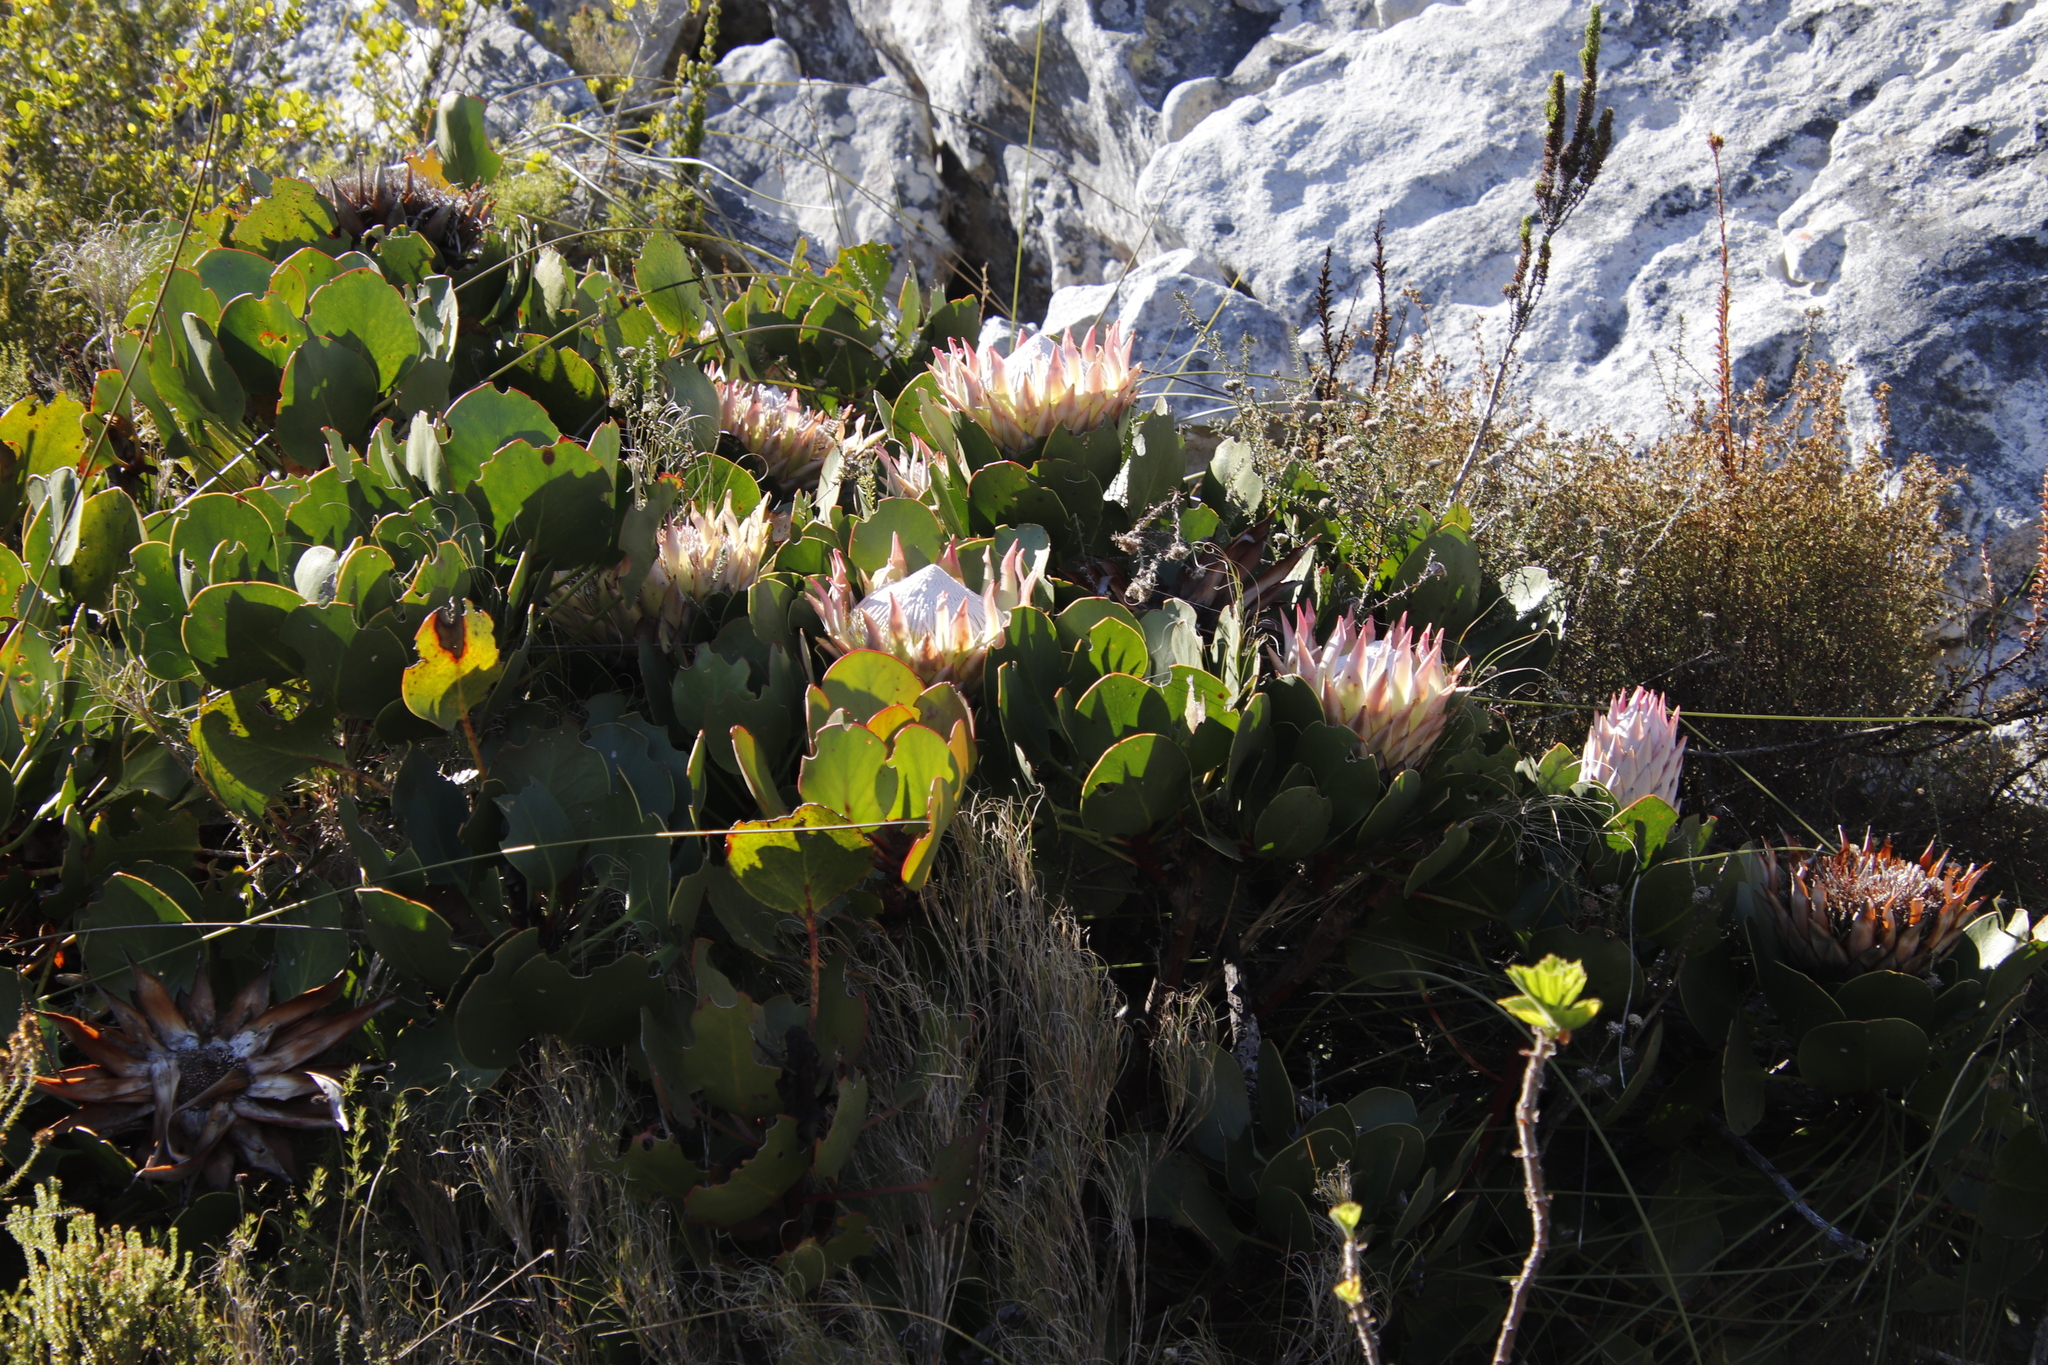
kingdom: Plantae
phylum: Tracheophyta
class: Magnoliopsida
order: Proteales
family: Proteaceae
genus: Protea
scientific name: Protea cynaroides
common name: King protea
